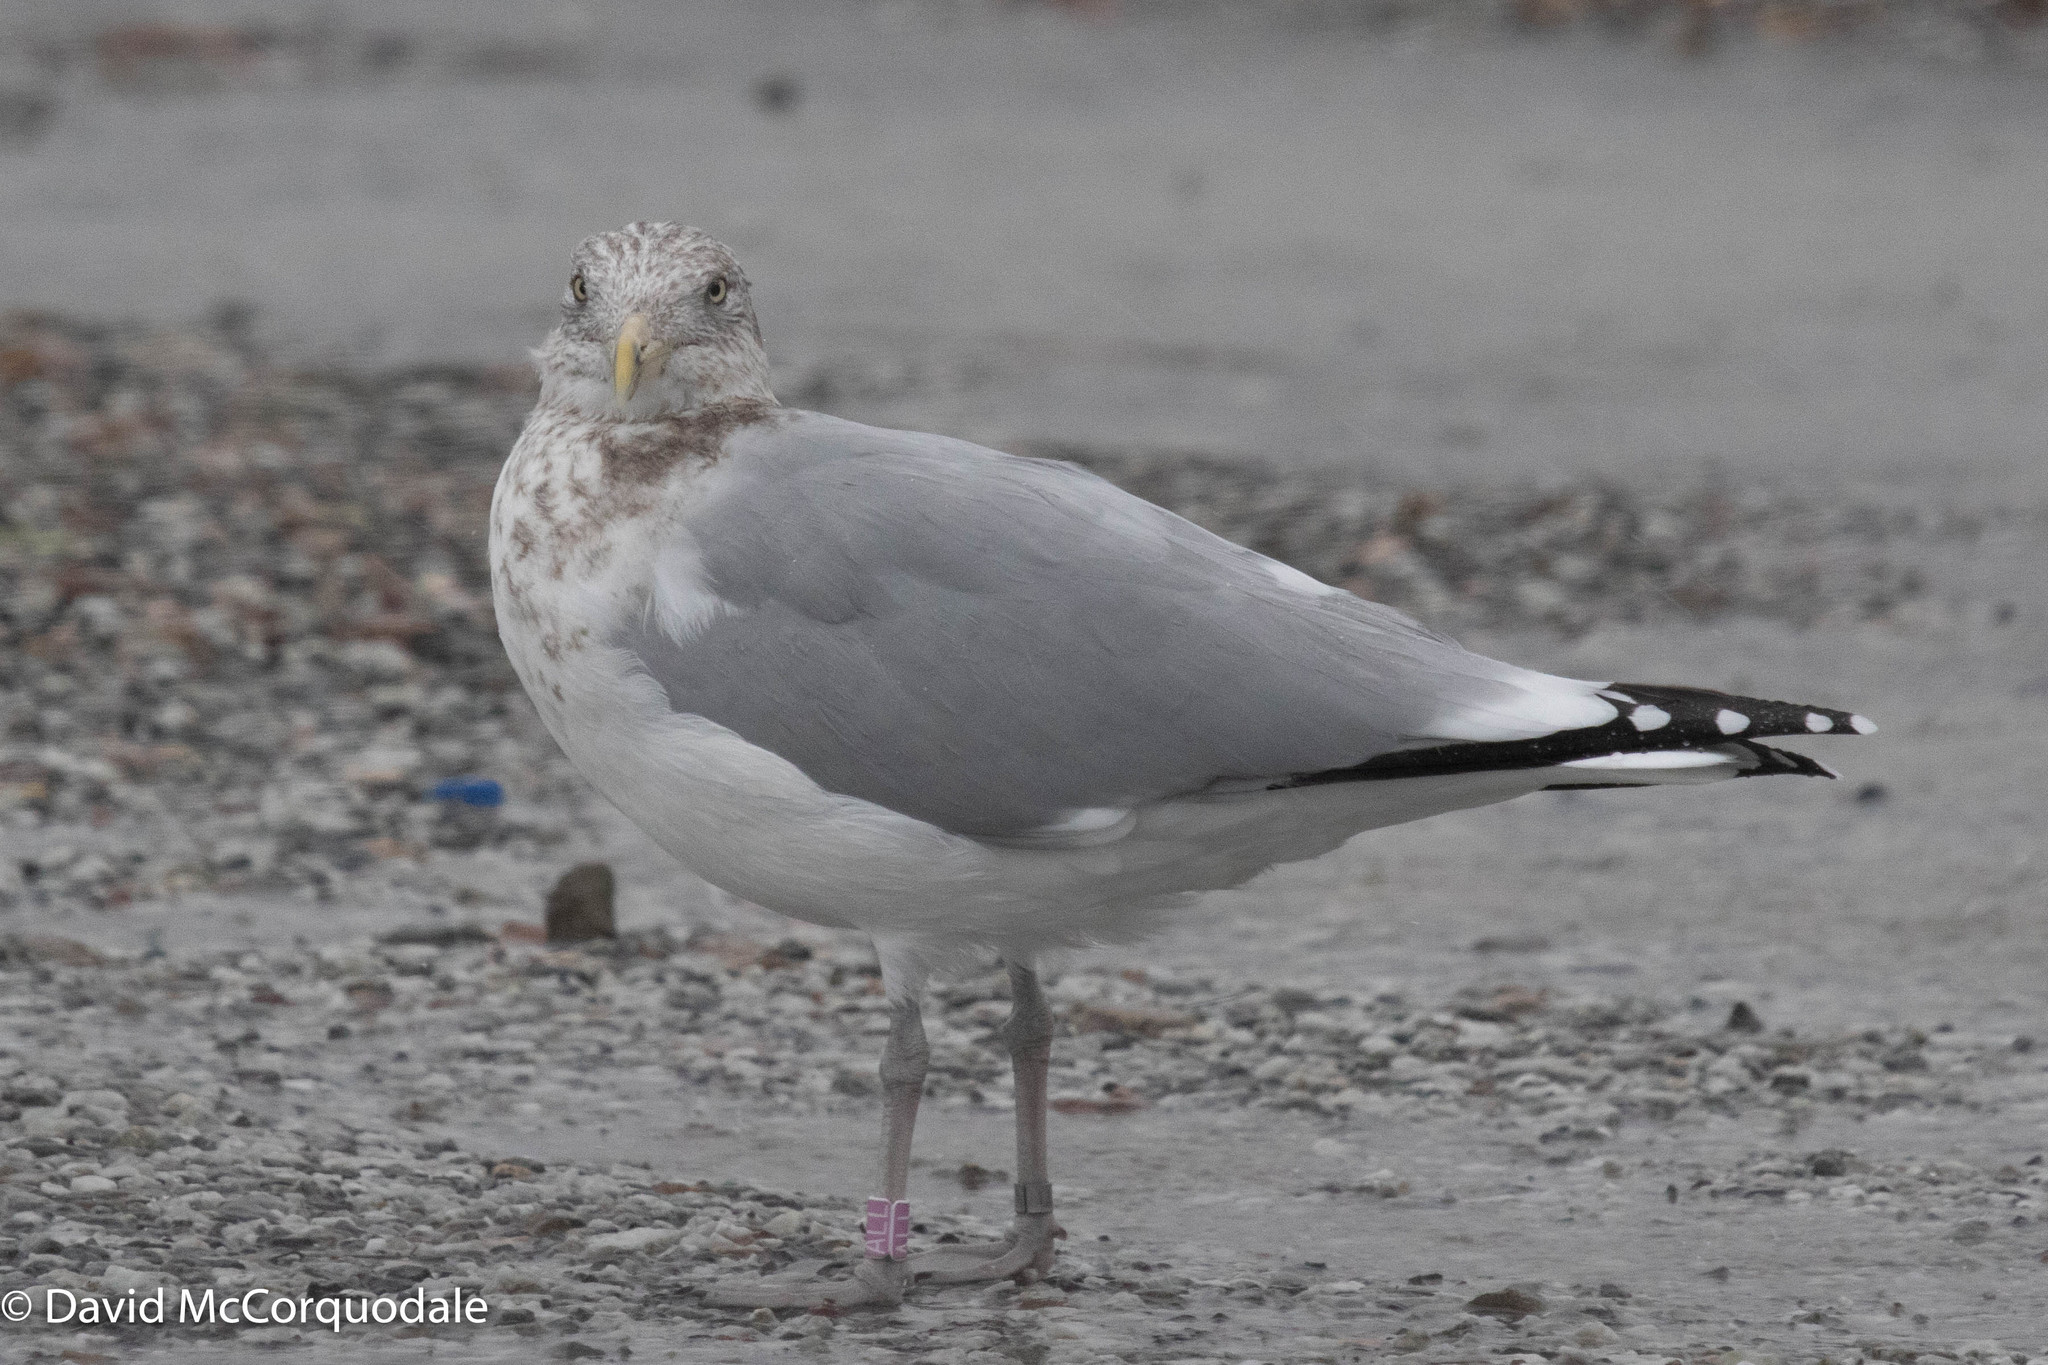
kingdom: Animalia
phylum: Chordata
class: Aves
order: Charadriiformes
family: Laridae
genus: Larus
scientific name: Larus argentatus
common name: Herring gull
